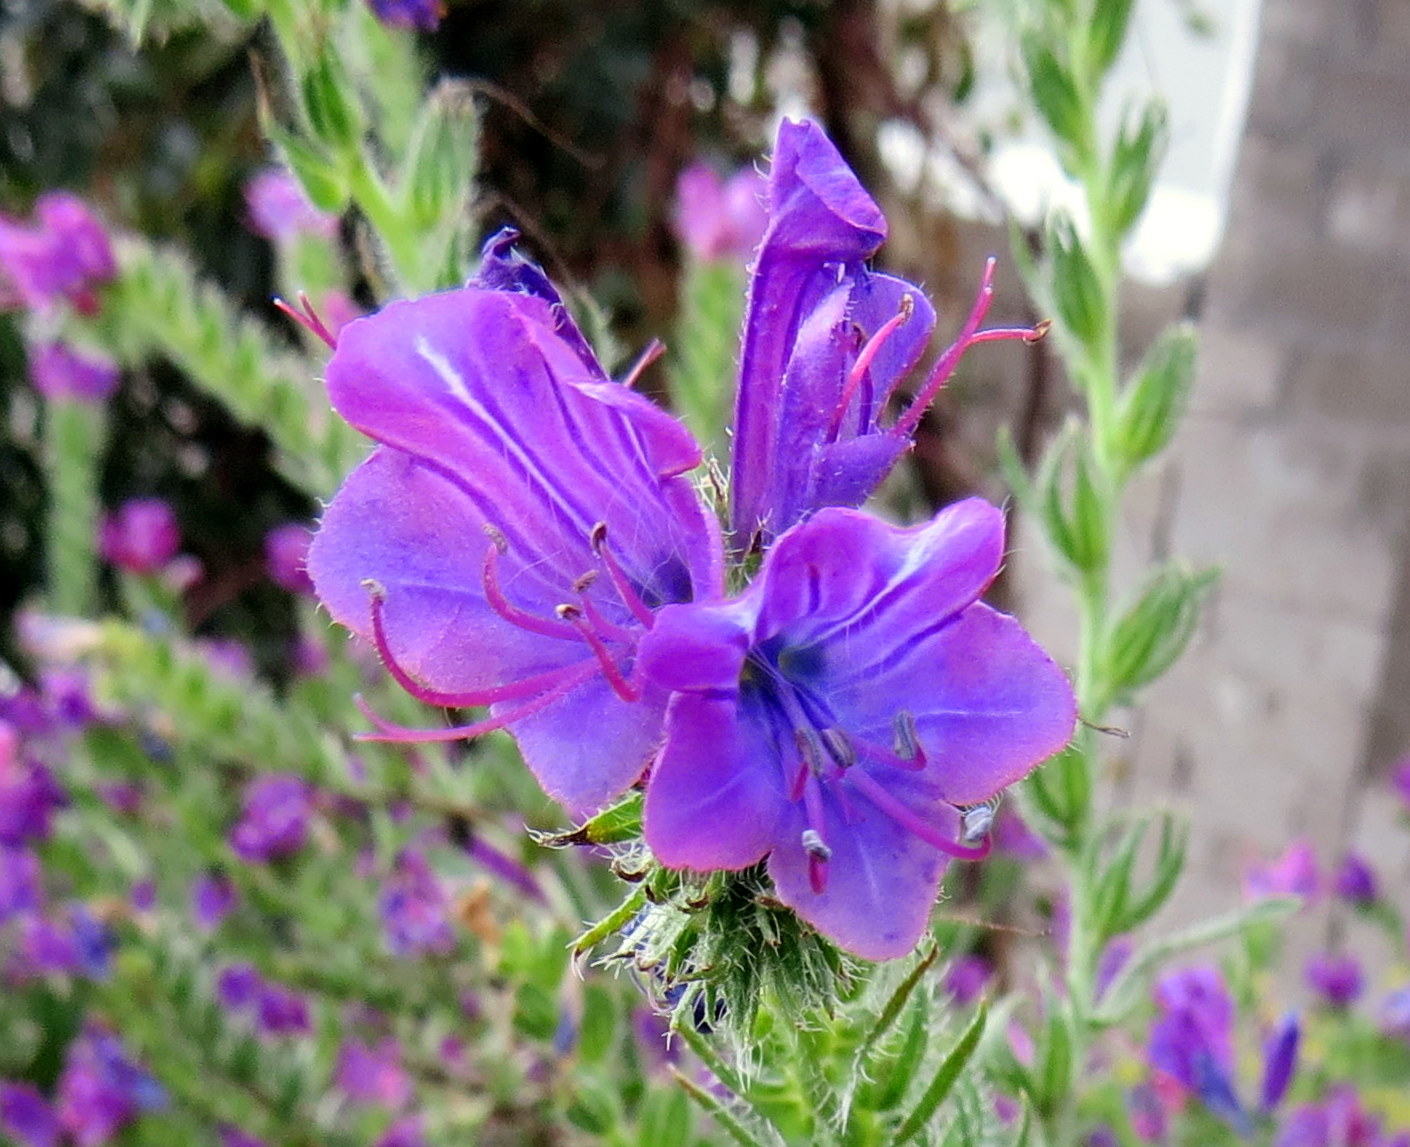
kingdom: Plantae
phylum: Tracheophyta
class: Magnoliopsida
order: Boraginales
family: Boraginaceae
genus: Echium
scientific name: Echium plantagineum
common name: Purple viper's-bugloss
